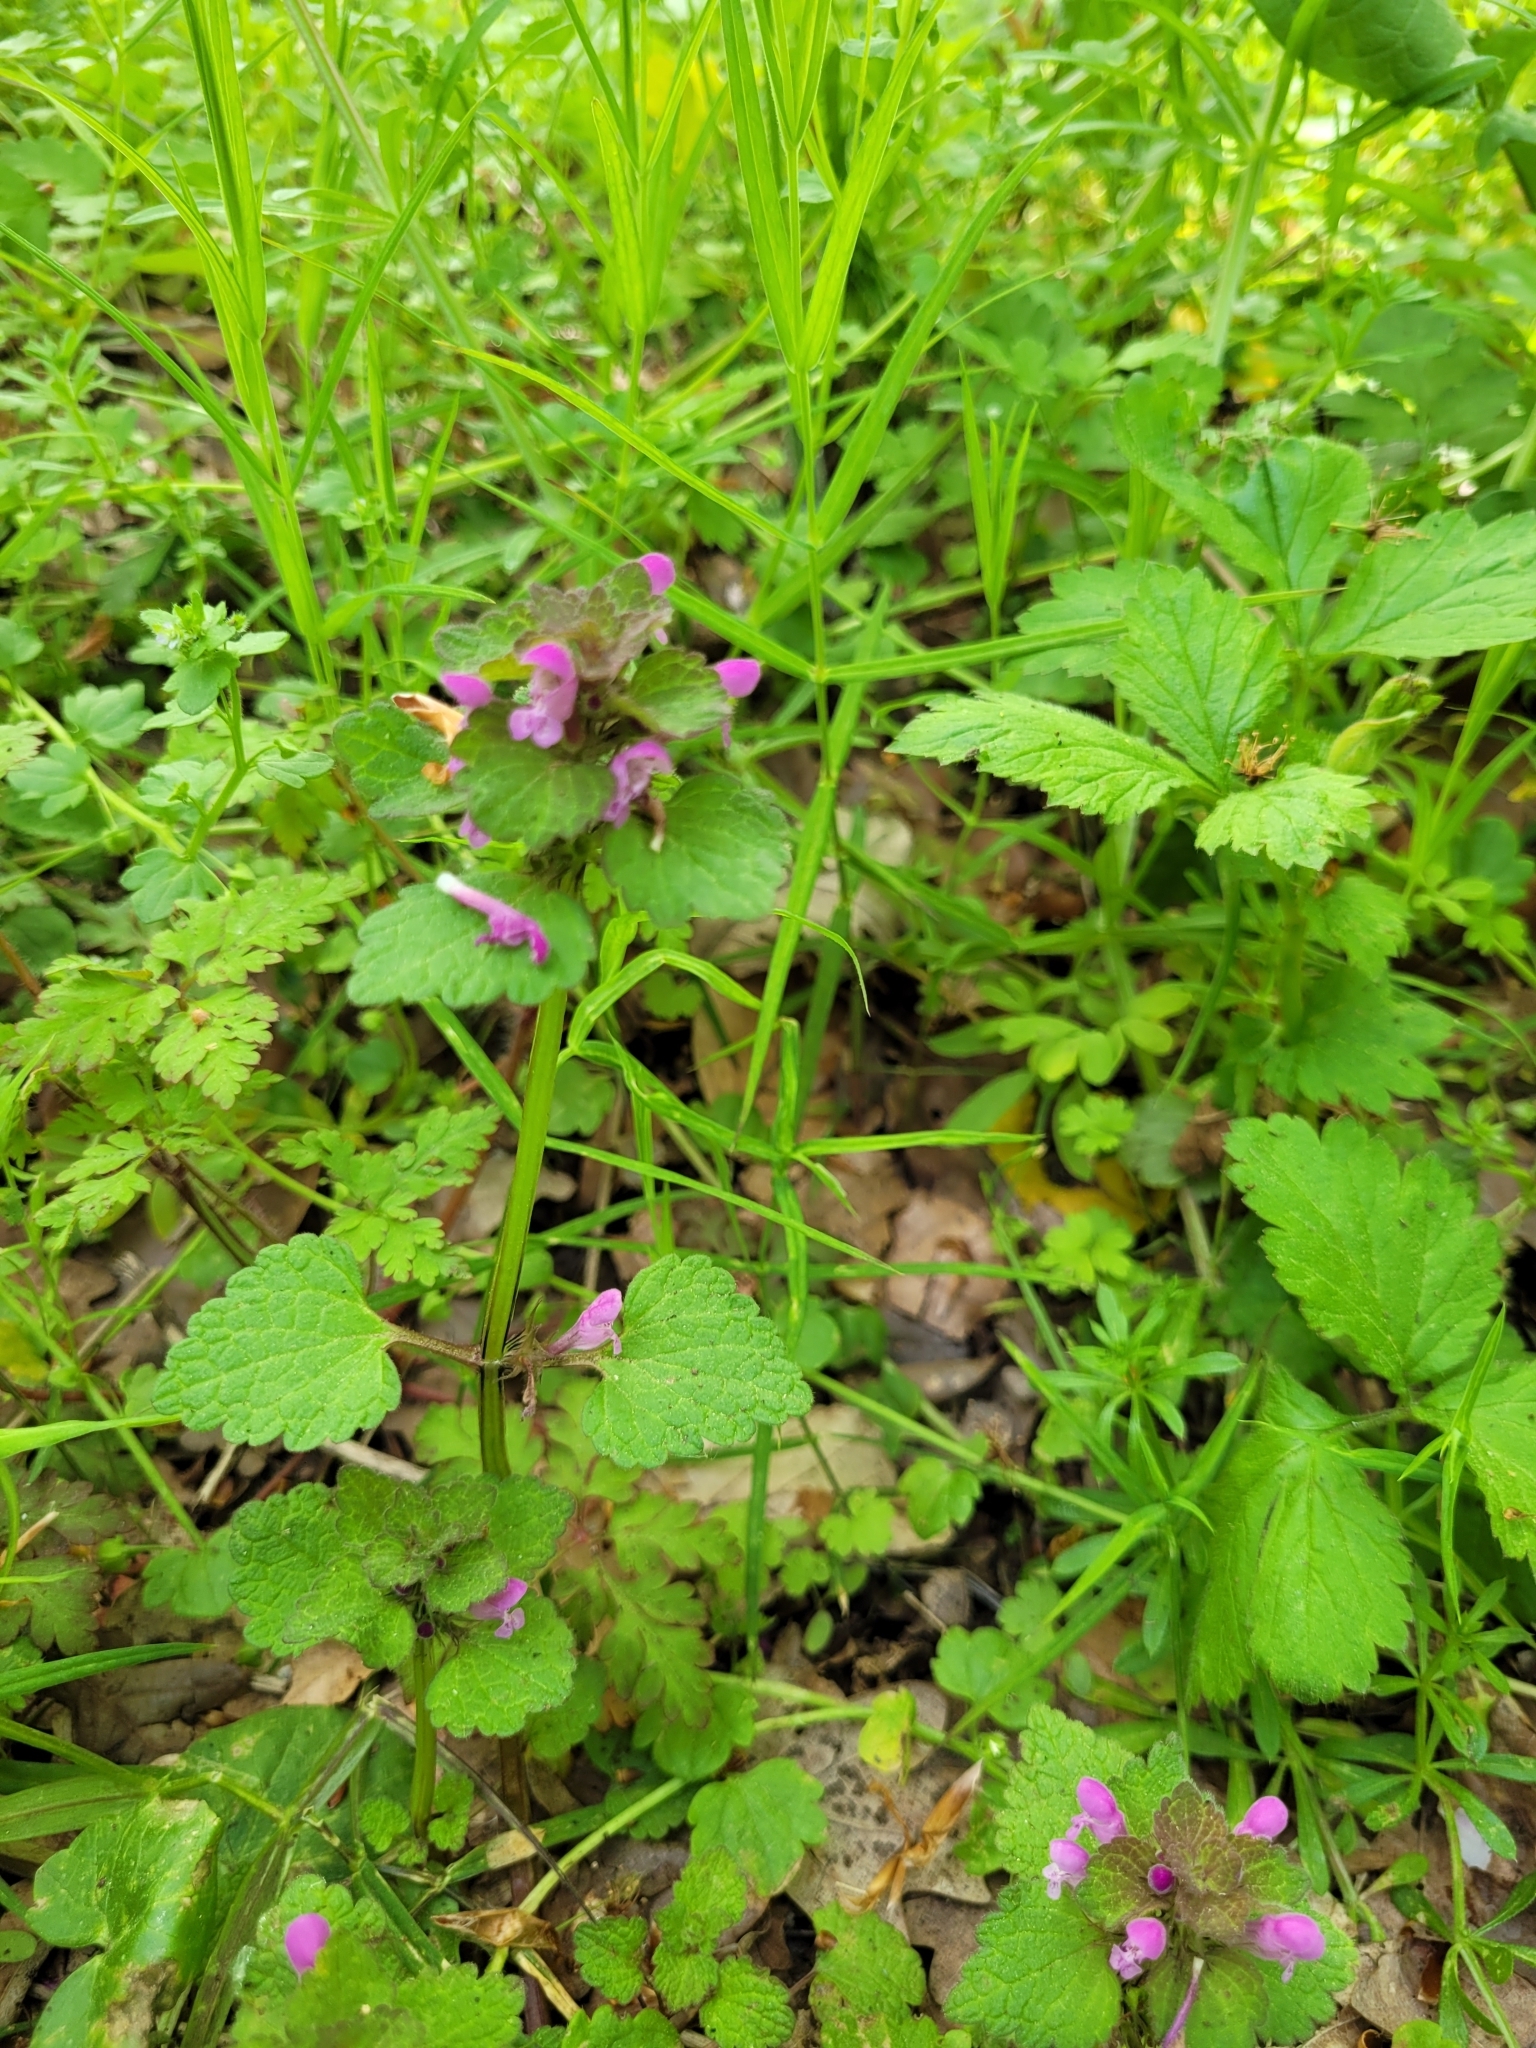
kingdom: Plantae
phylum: Tracheophyta
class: Magnoliopsida
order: Lamiales
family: Lamiaceae
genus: Lamium
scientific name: Lamium purpureum
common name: Red dead-nettle
